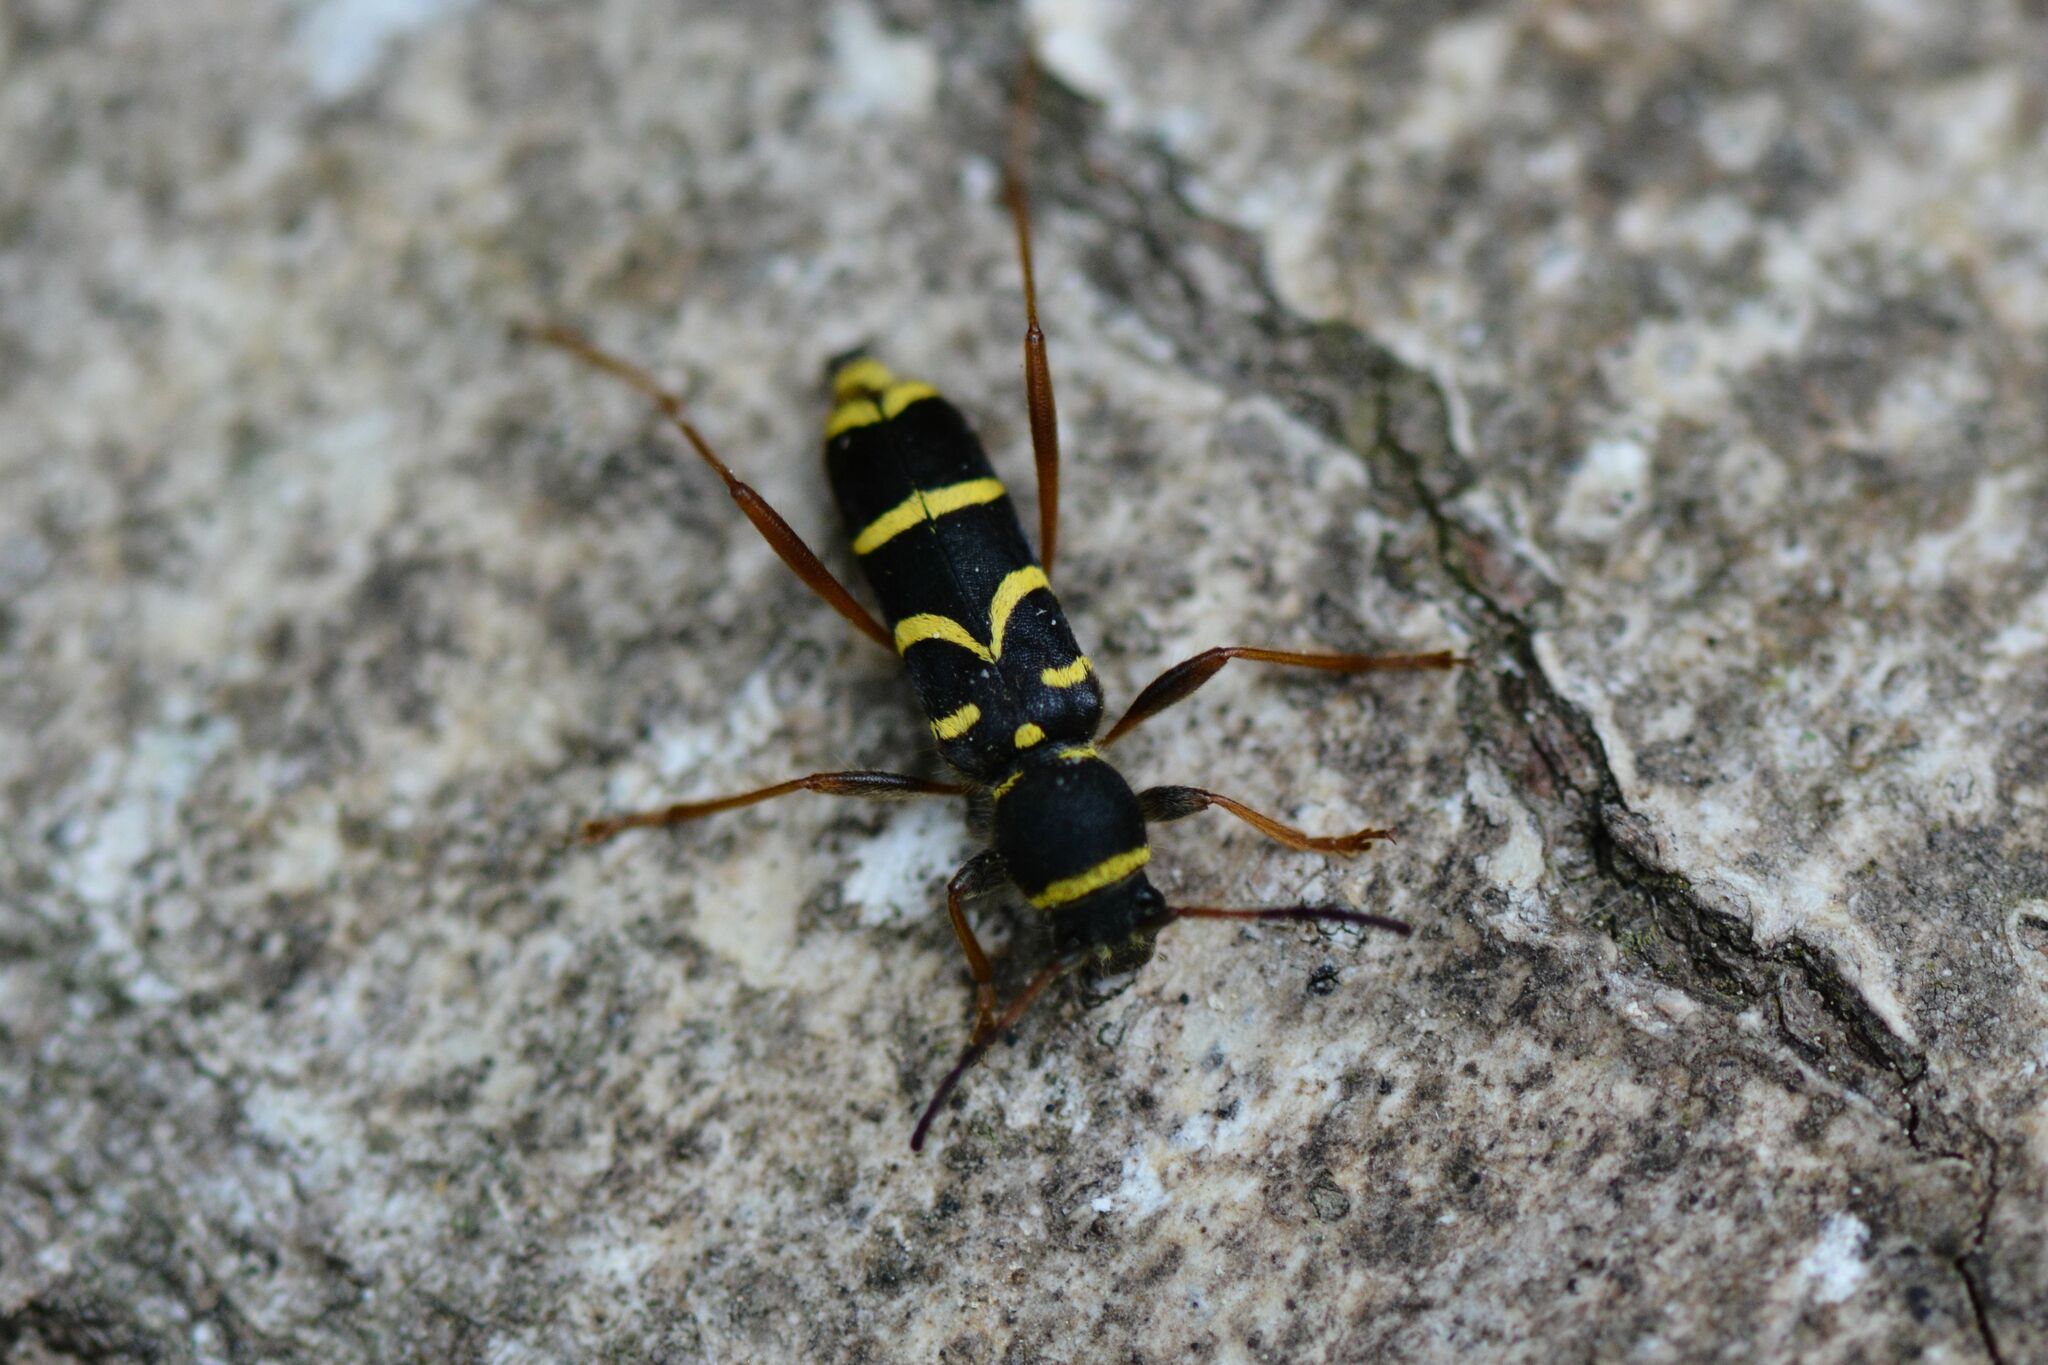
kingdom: Animalia
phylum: Arthropoda
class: Insecta
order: Coleoptera
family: Cerambycidae
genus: Clytus
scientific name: Clytus arietis
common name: Wasp beetle
